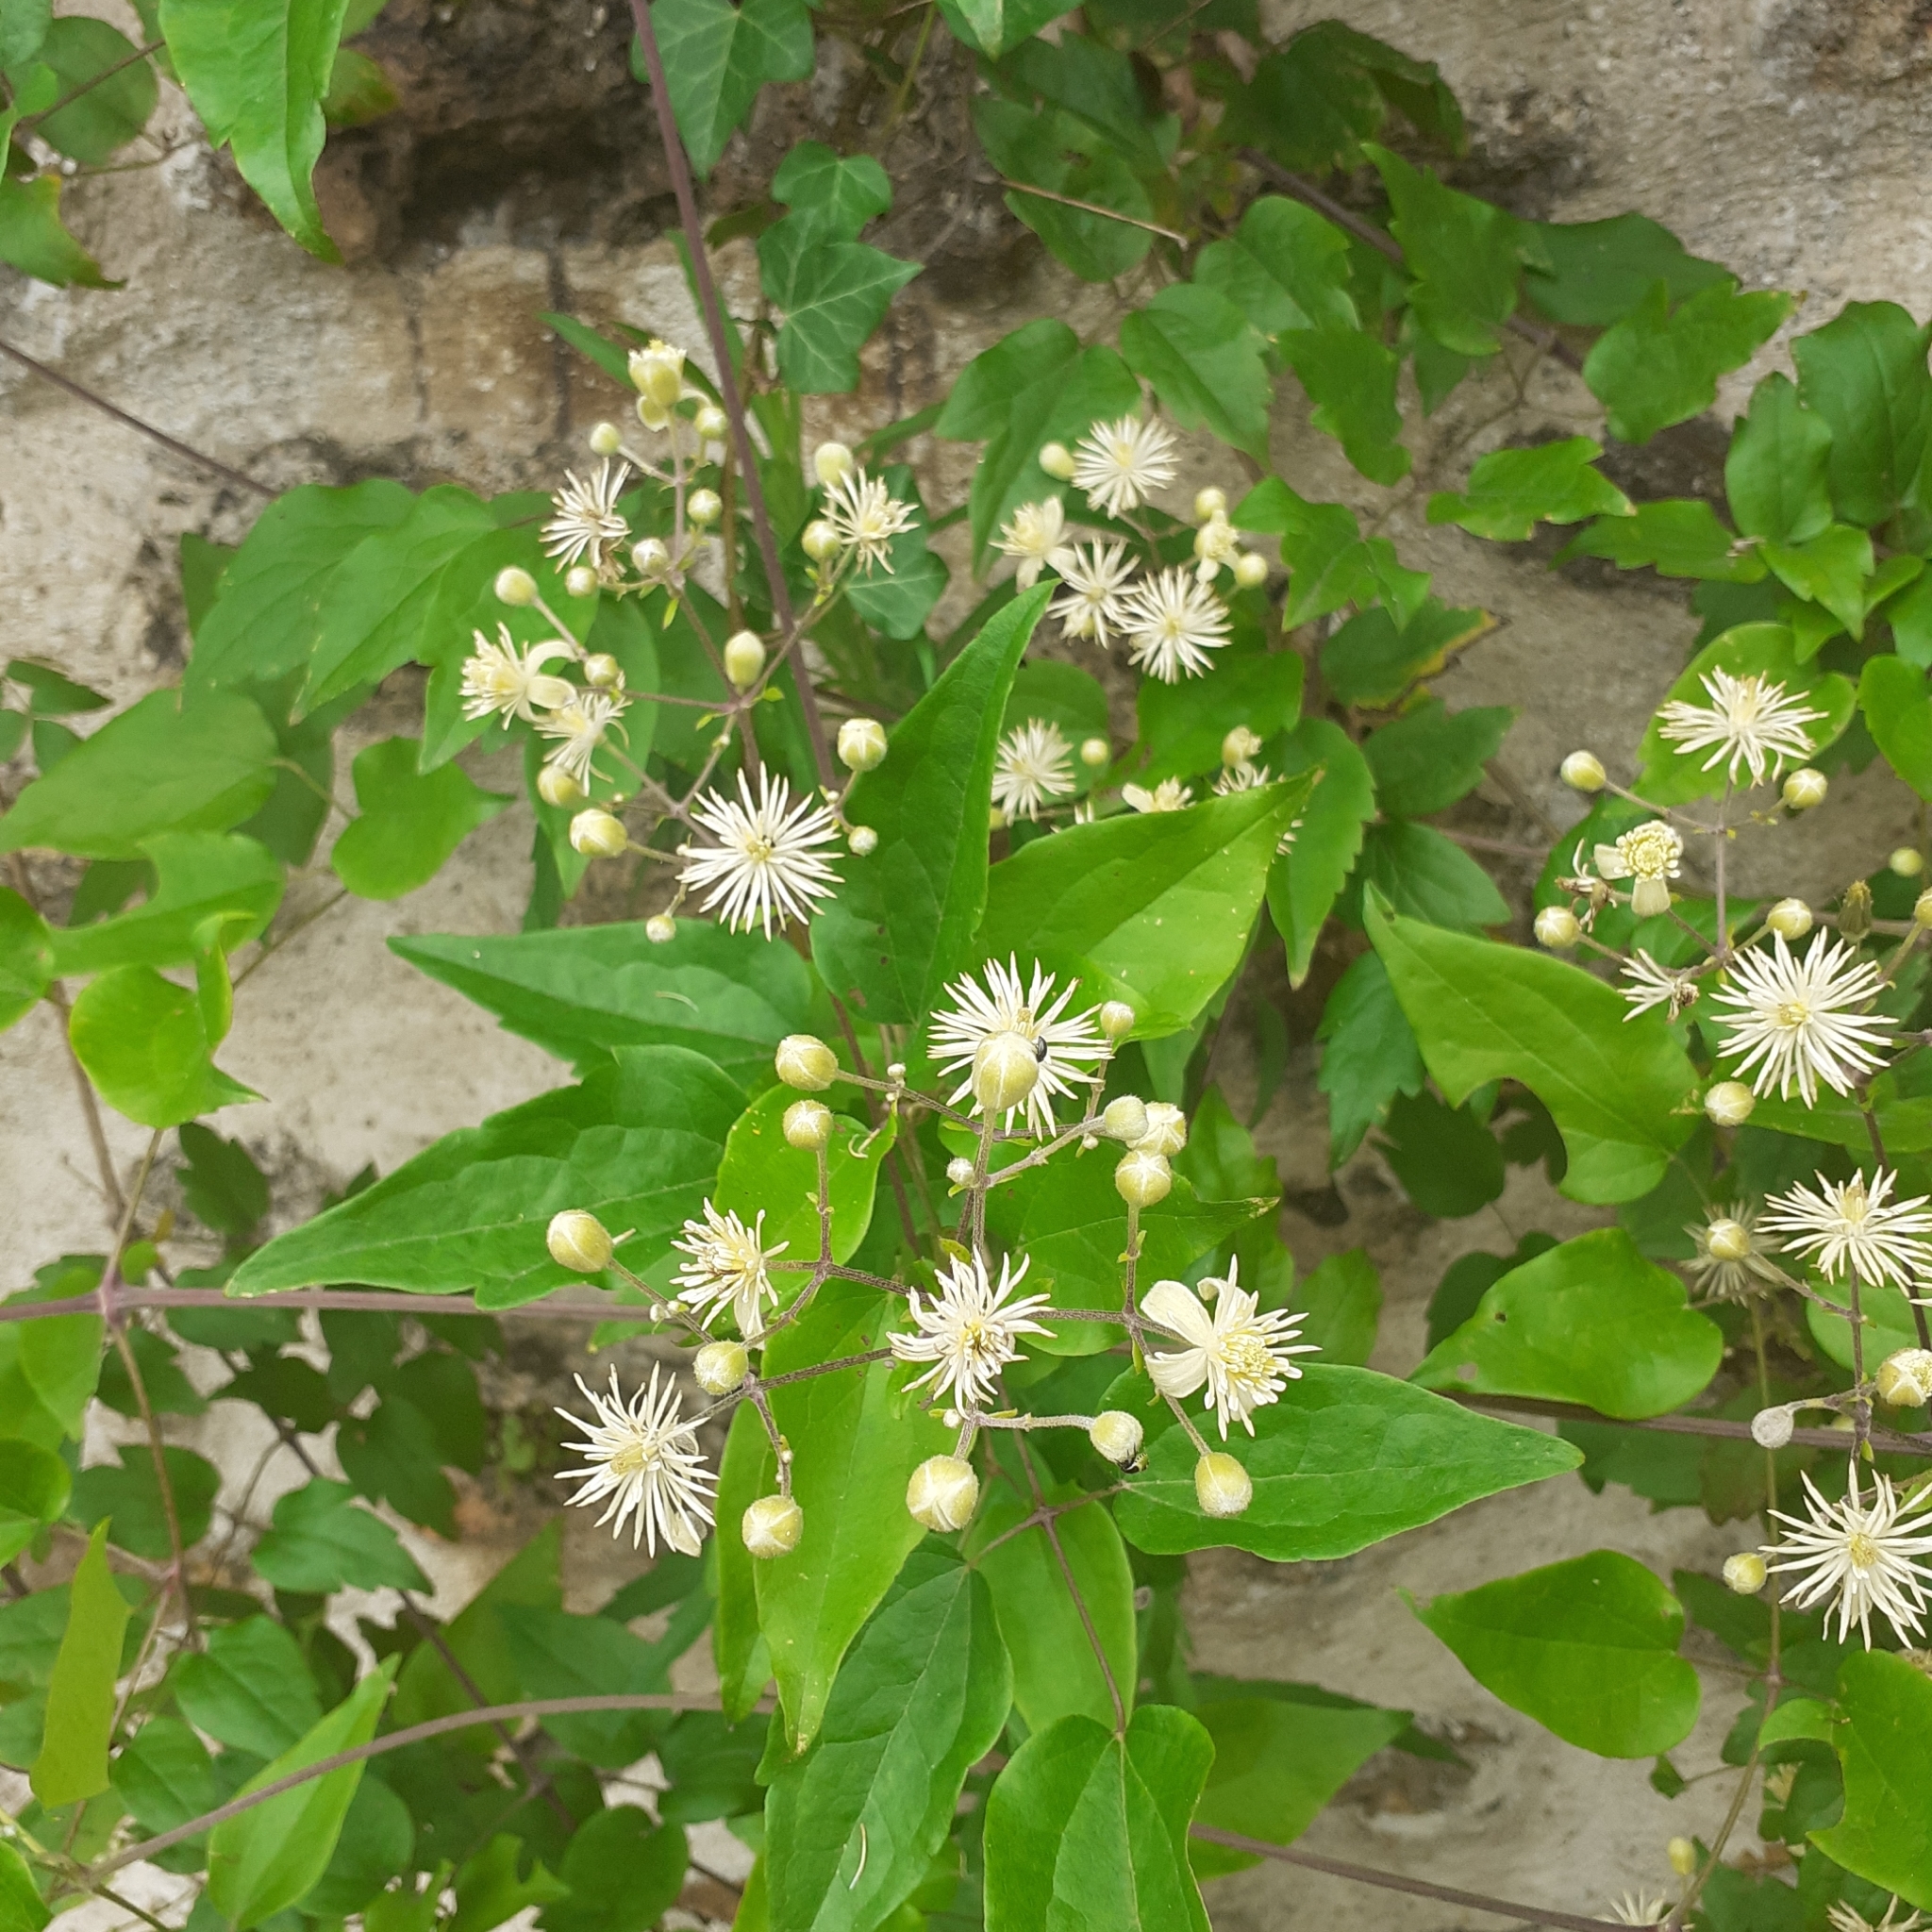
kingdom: Plantae
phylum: Tracheophyta
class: Magnoliopsida
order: Ranunculales
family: Ranunculaceae
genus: Clematis
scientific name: Clematis vitalba
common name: Evergreen clematis
